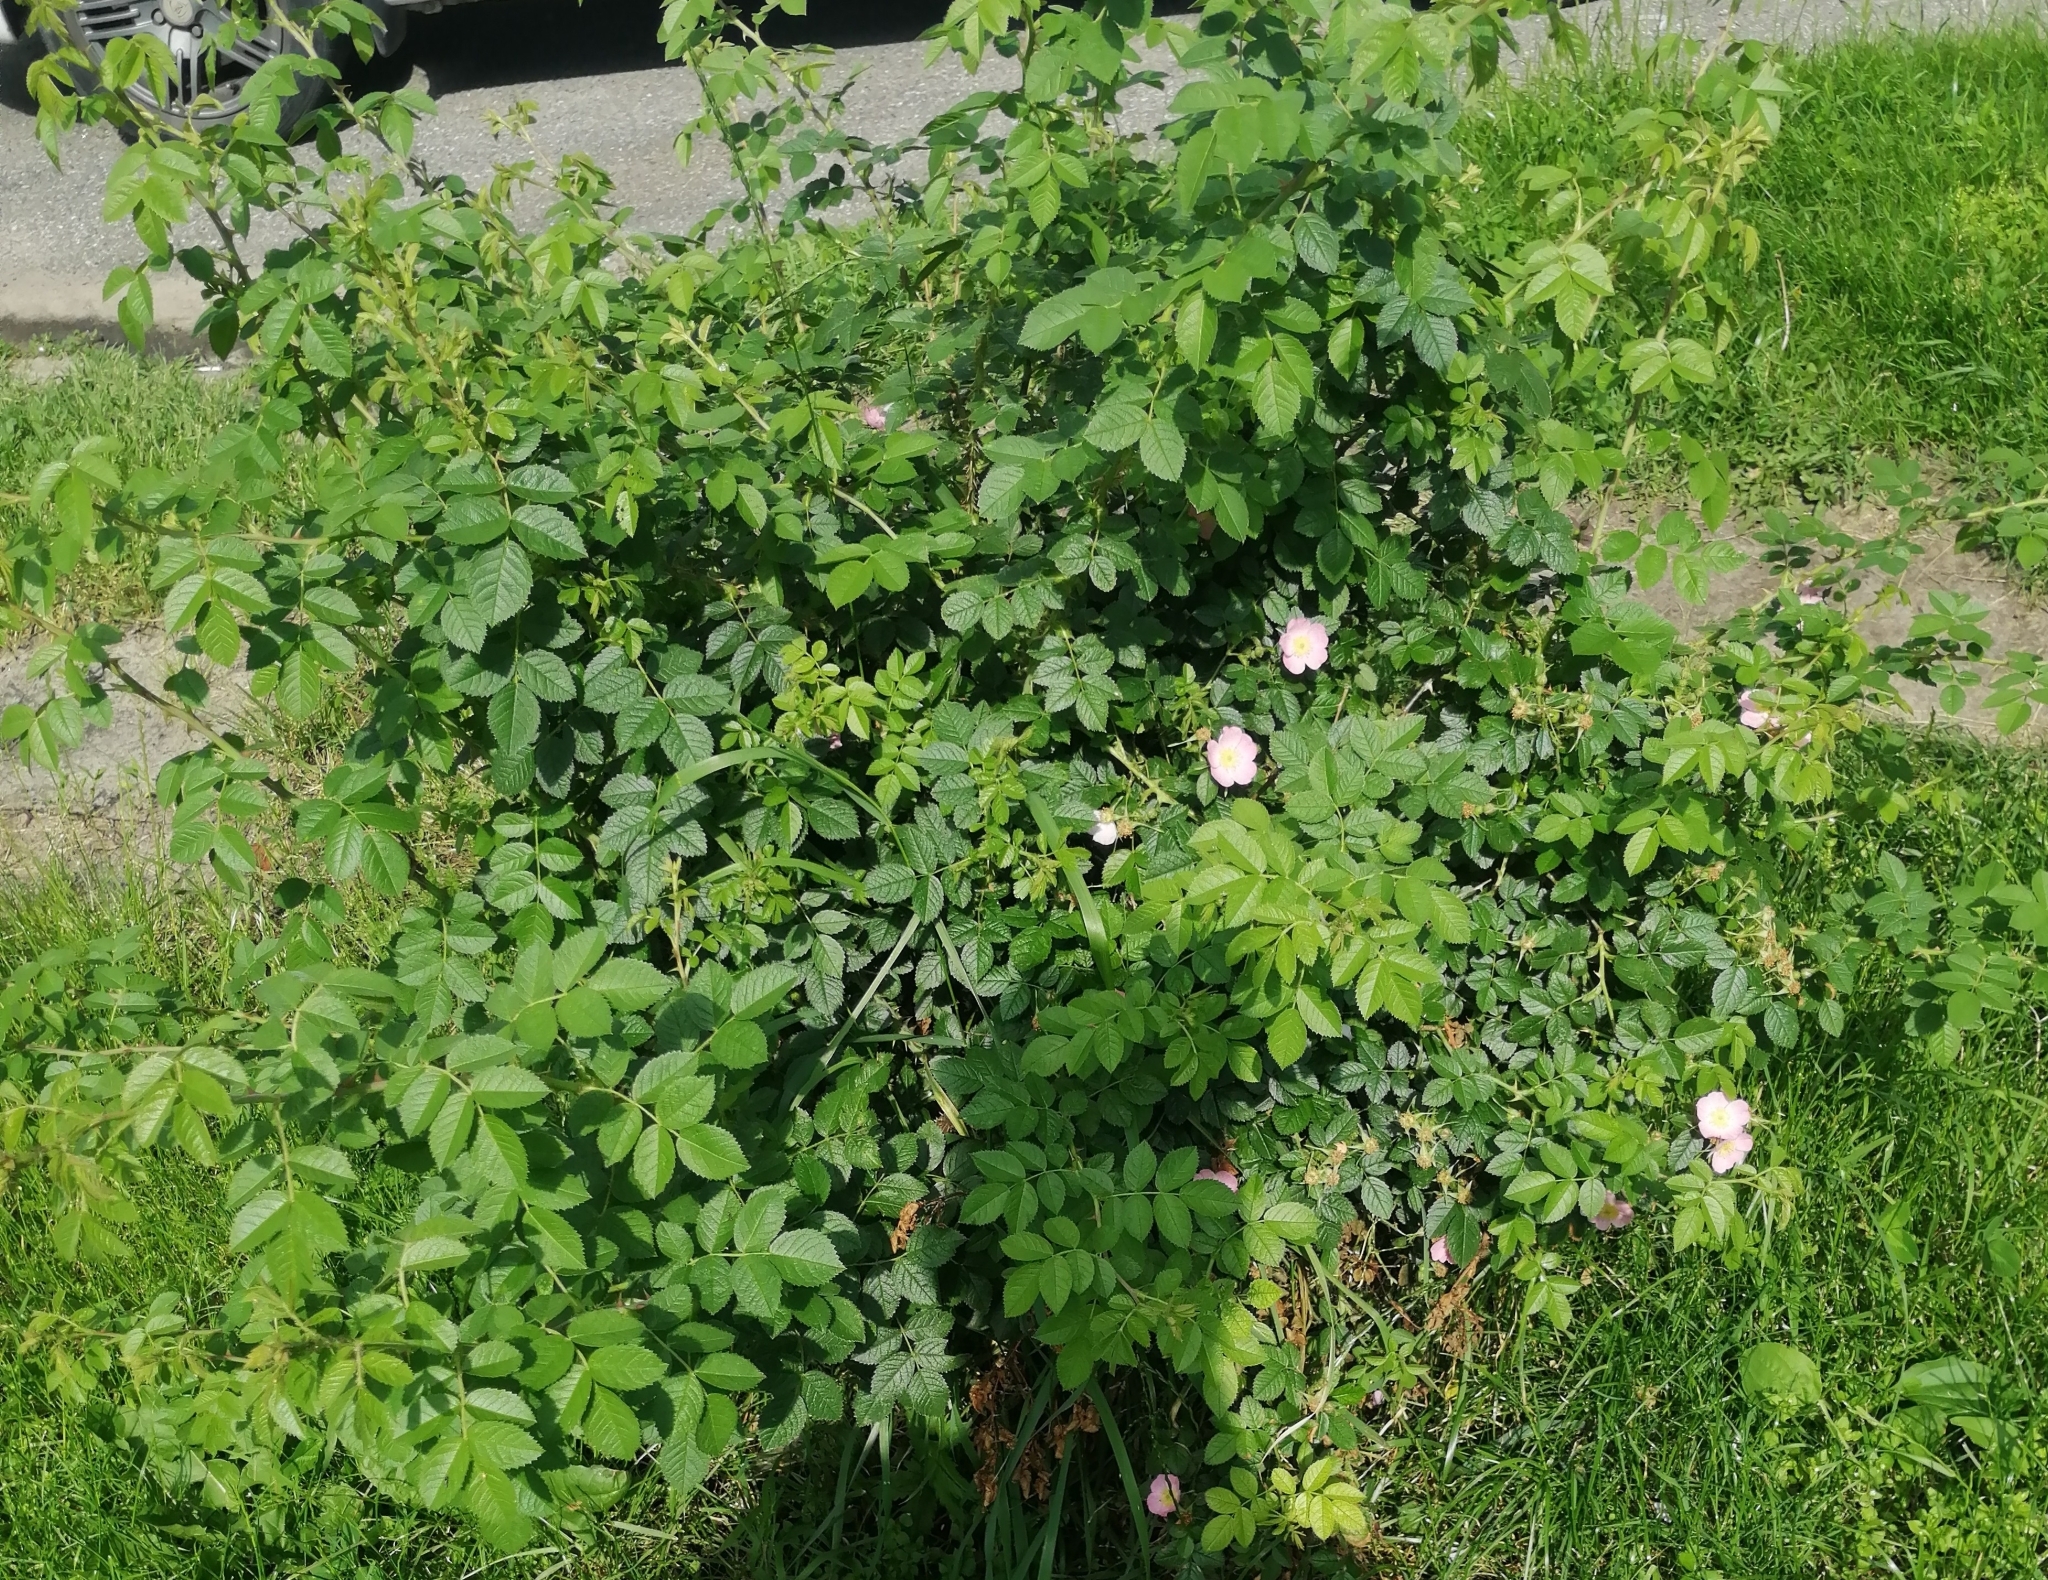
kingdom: Plantae
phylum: Tracheophyta
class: Magnoliopsida
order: Rosales
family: Rosaceae
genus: Rosa
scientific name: Rosa canina
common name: Dog rose
